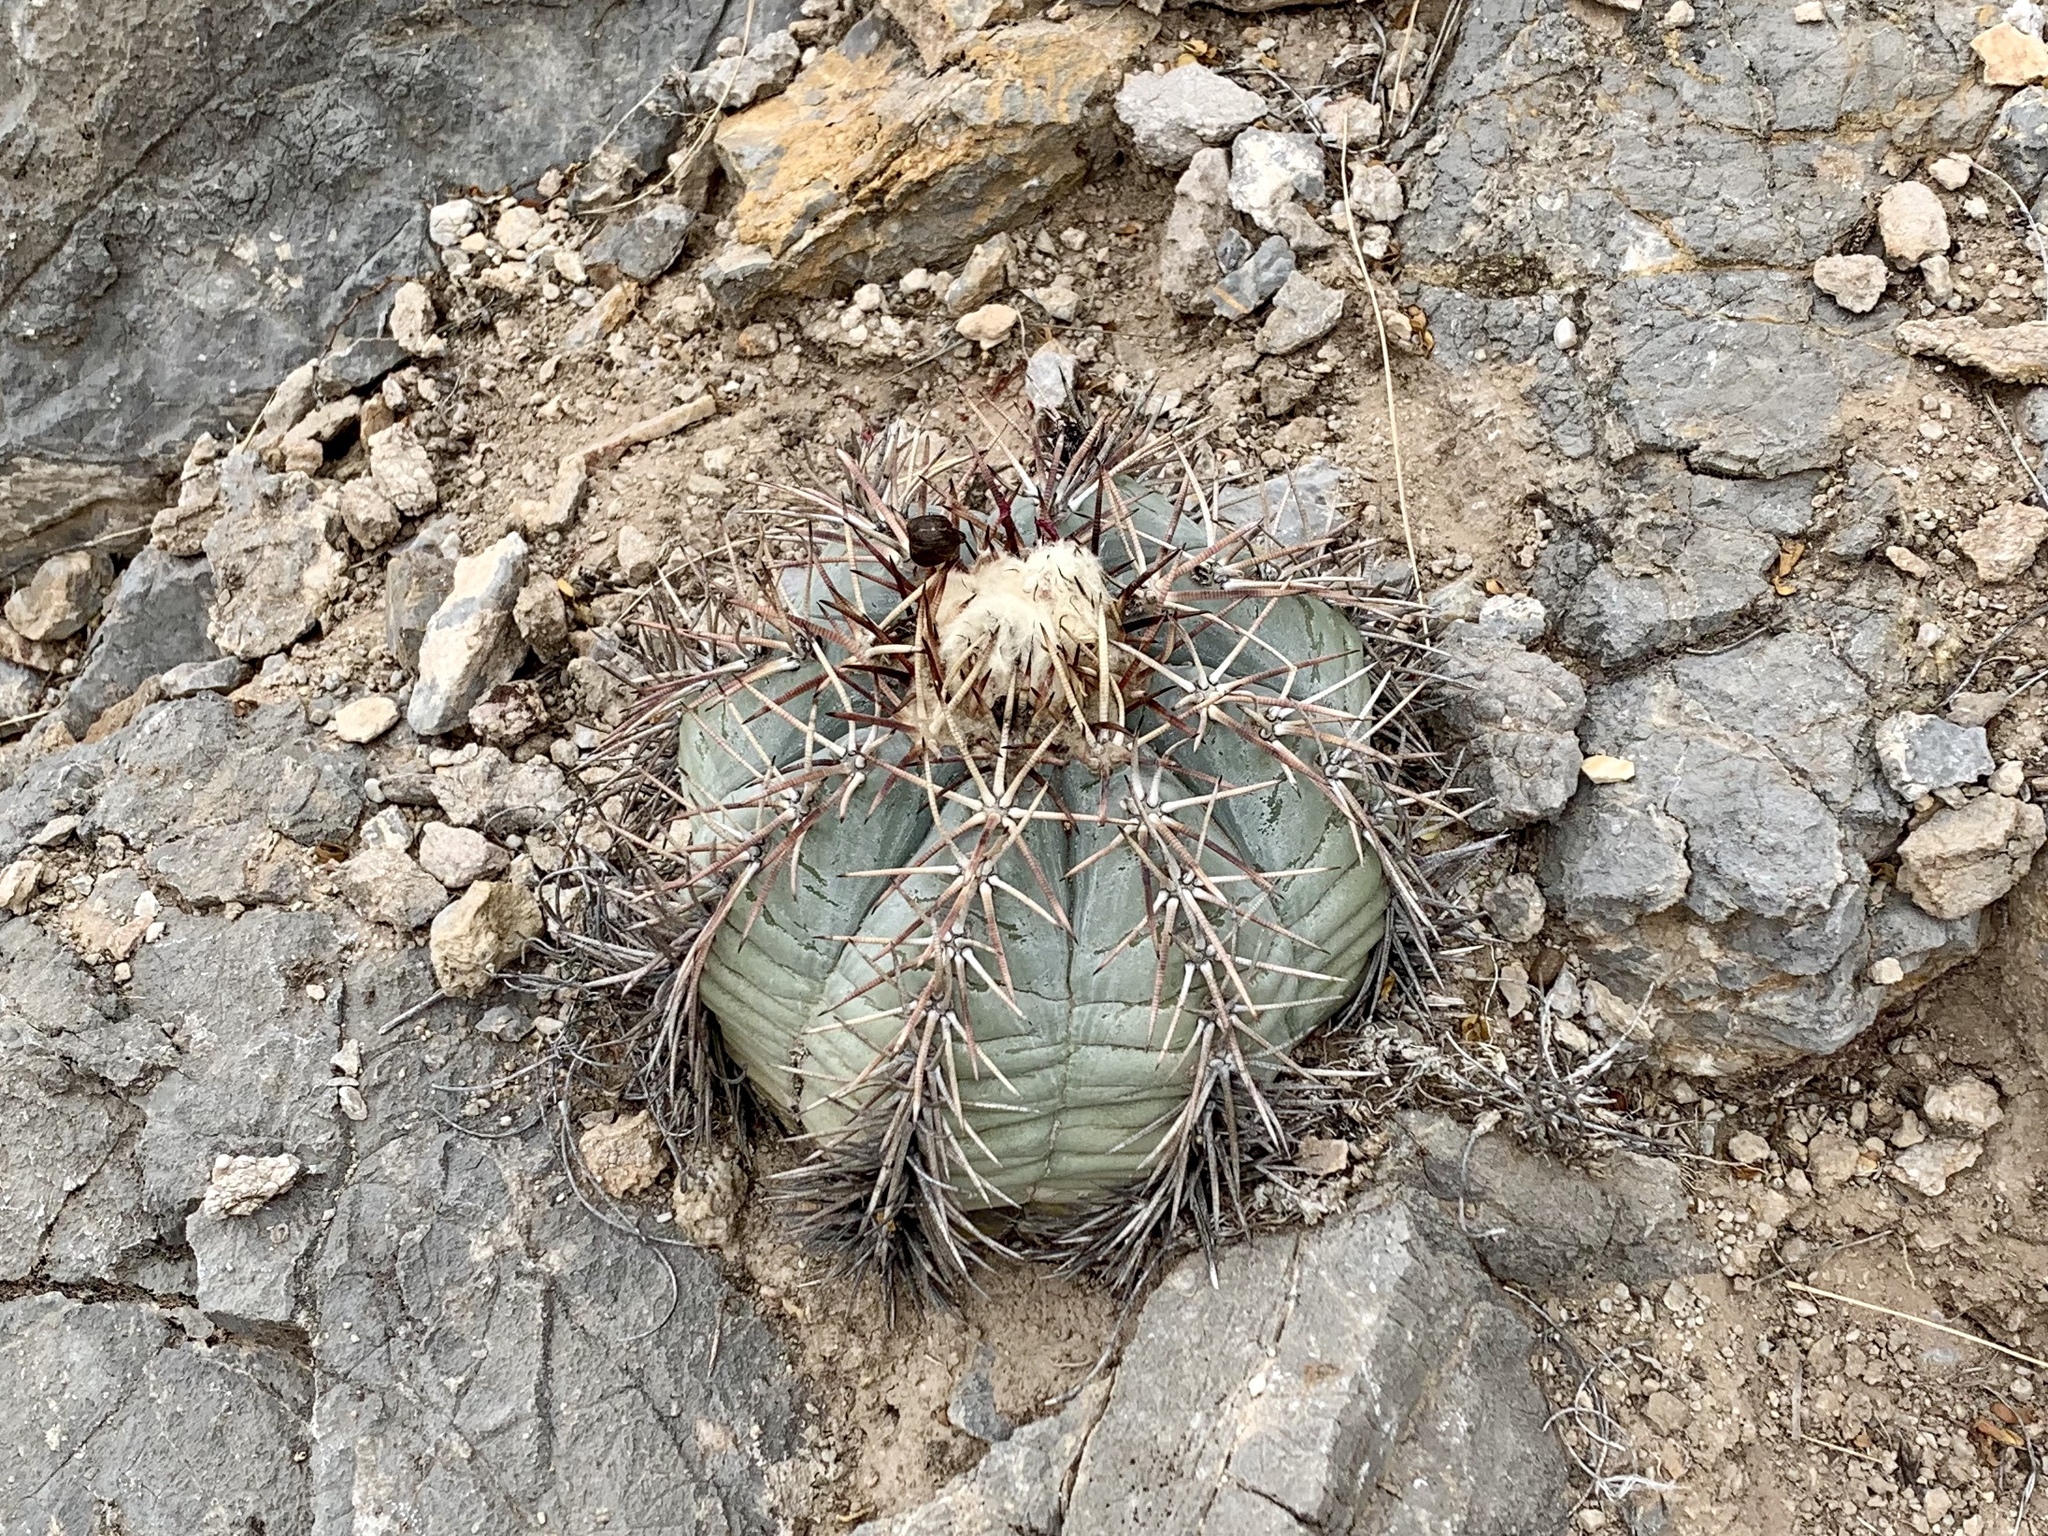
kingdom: Plantae
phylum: Tracheophyta
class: Magnoliopsida
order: Caryophyllales
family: Cactaceae
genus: Echinocactus
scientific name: Echinocactus horizonthalonius
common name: Devilshead
